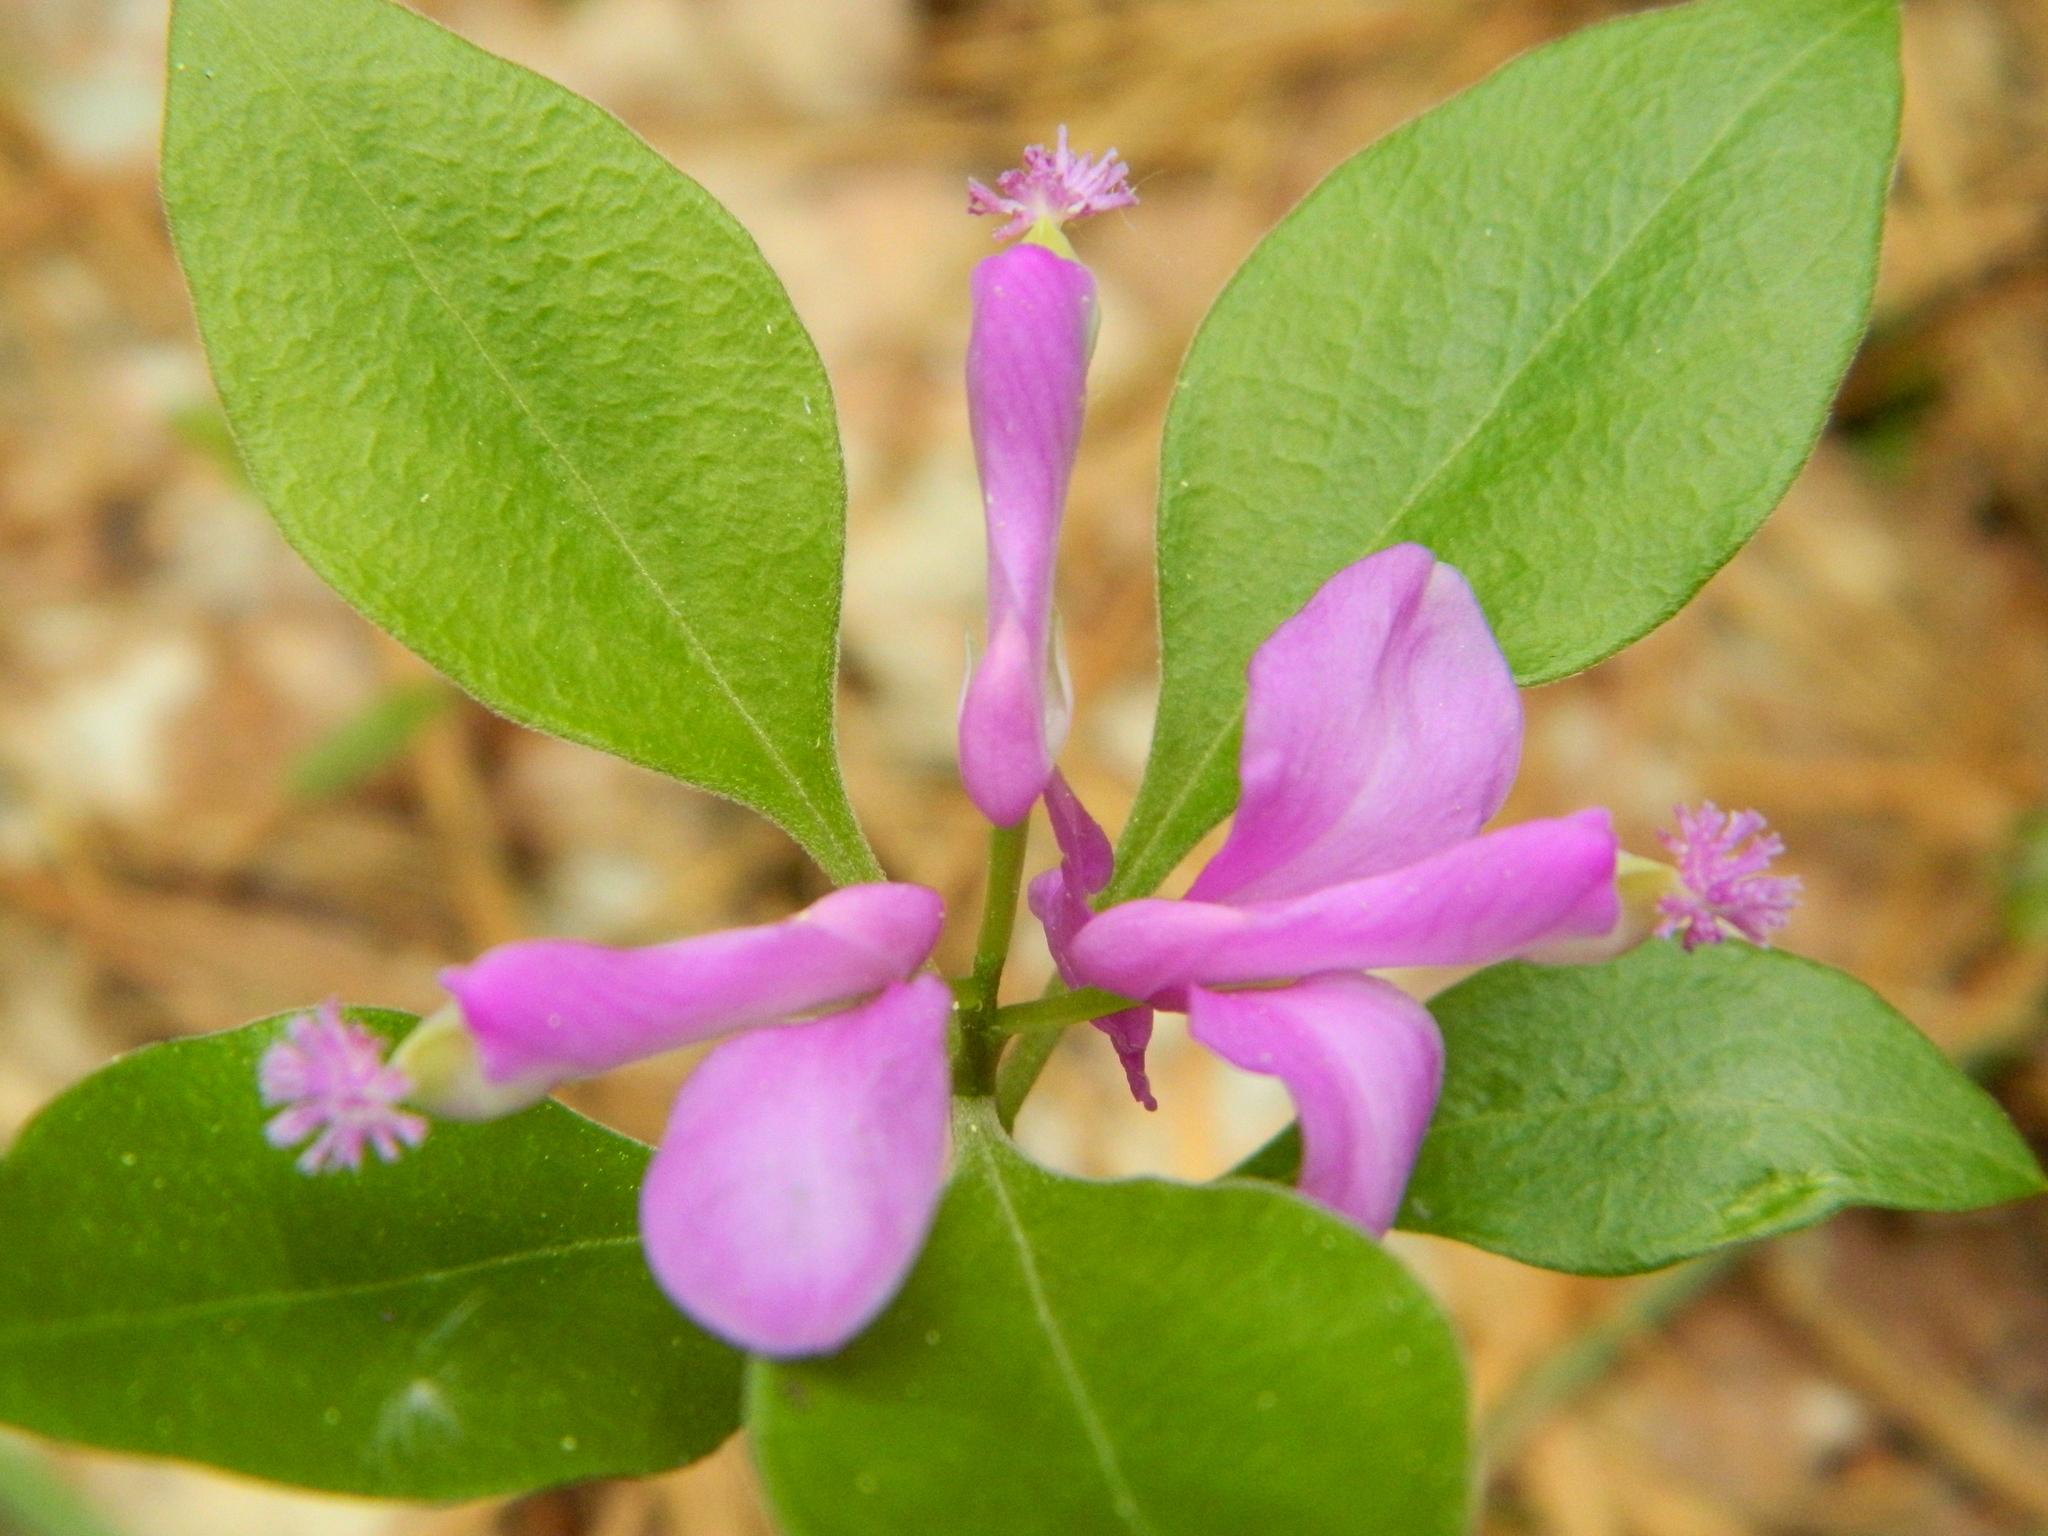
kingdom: Plantae
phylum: Tracheophyta
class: Magnoliopsida
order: Fabales
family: Polygalaceae
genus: Polygaloides
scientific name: Polygaloides paucifolia
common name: Bird-on-the-wing
